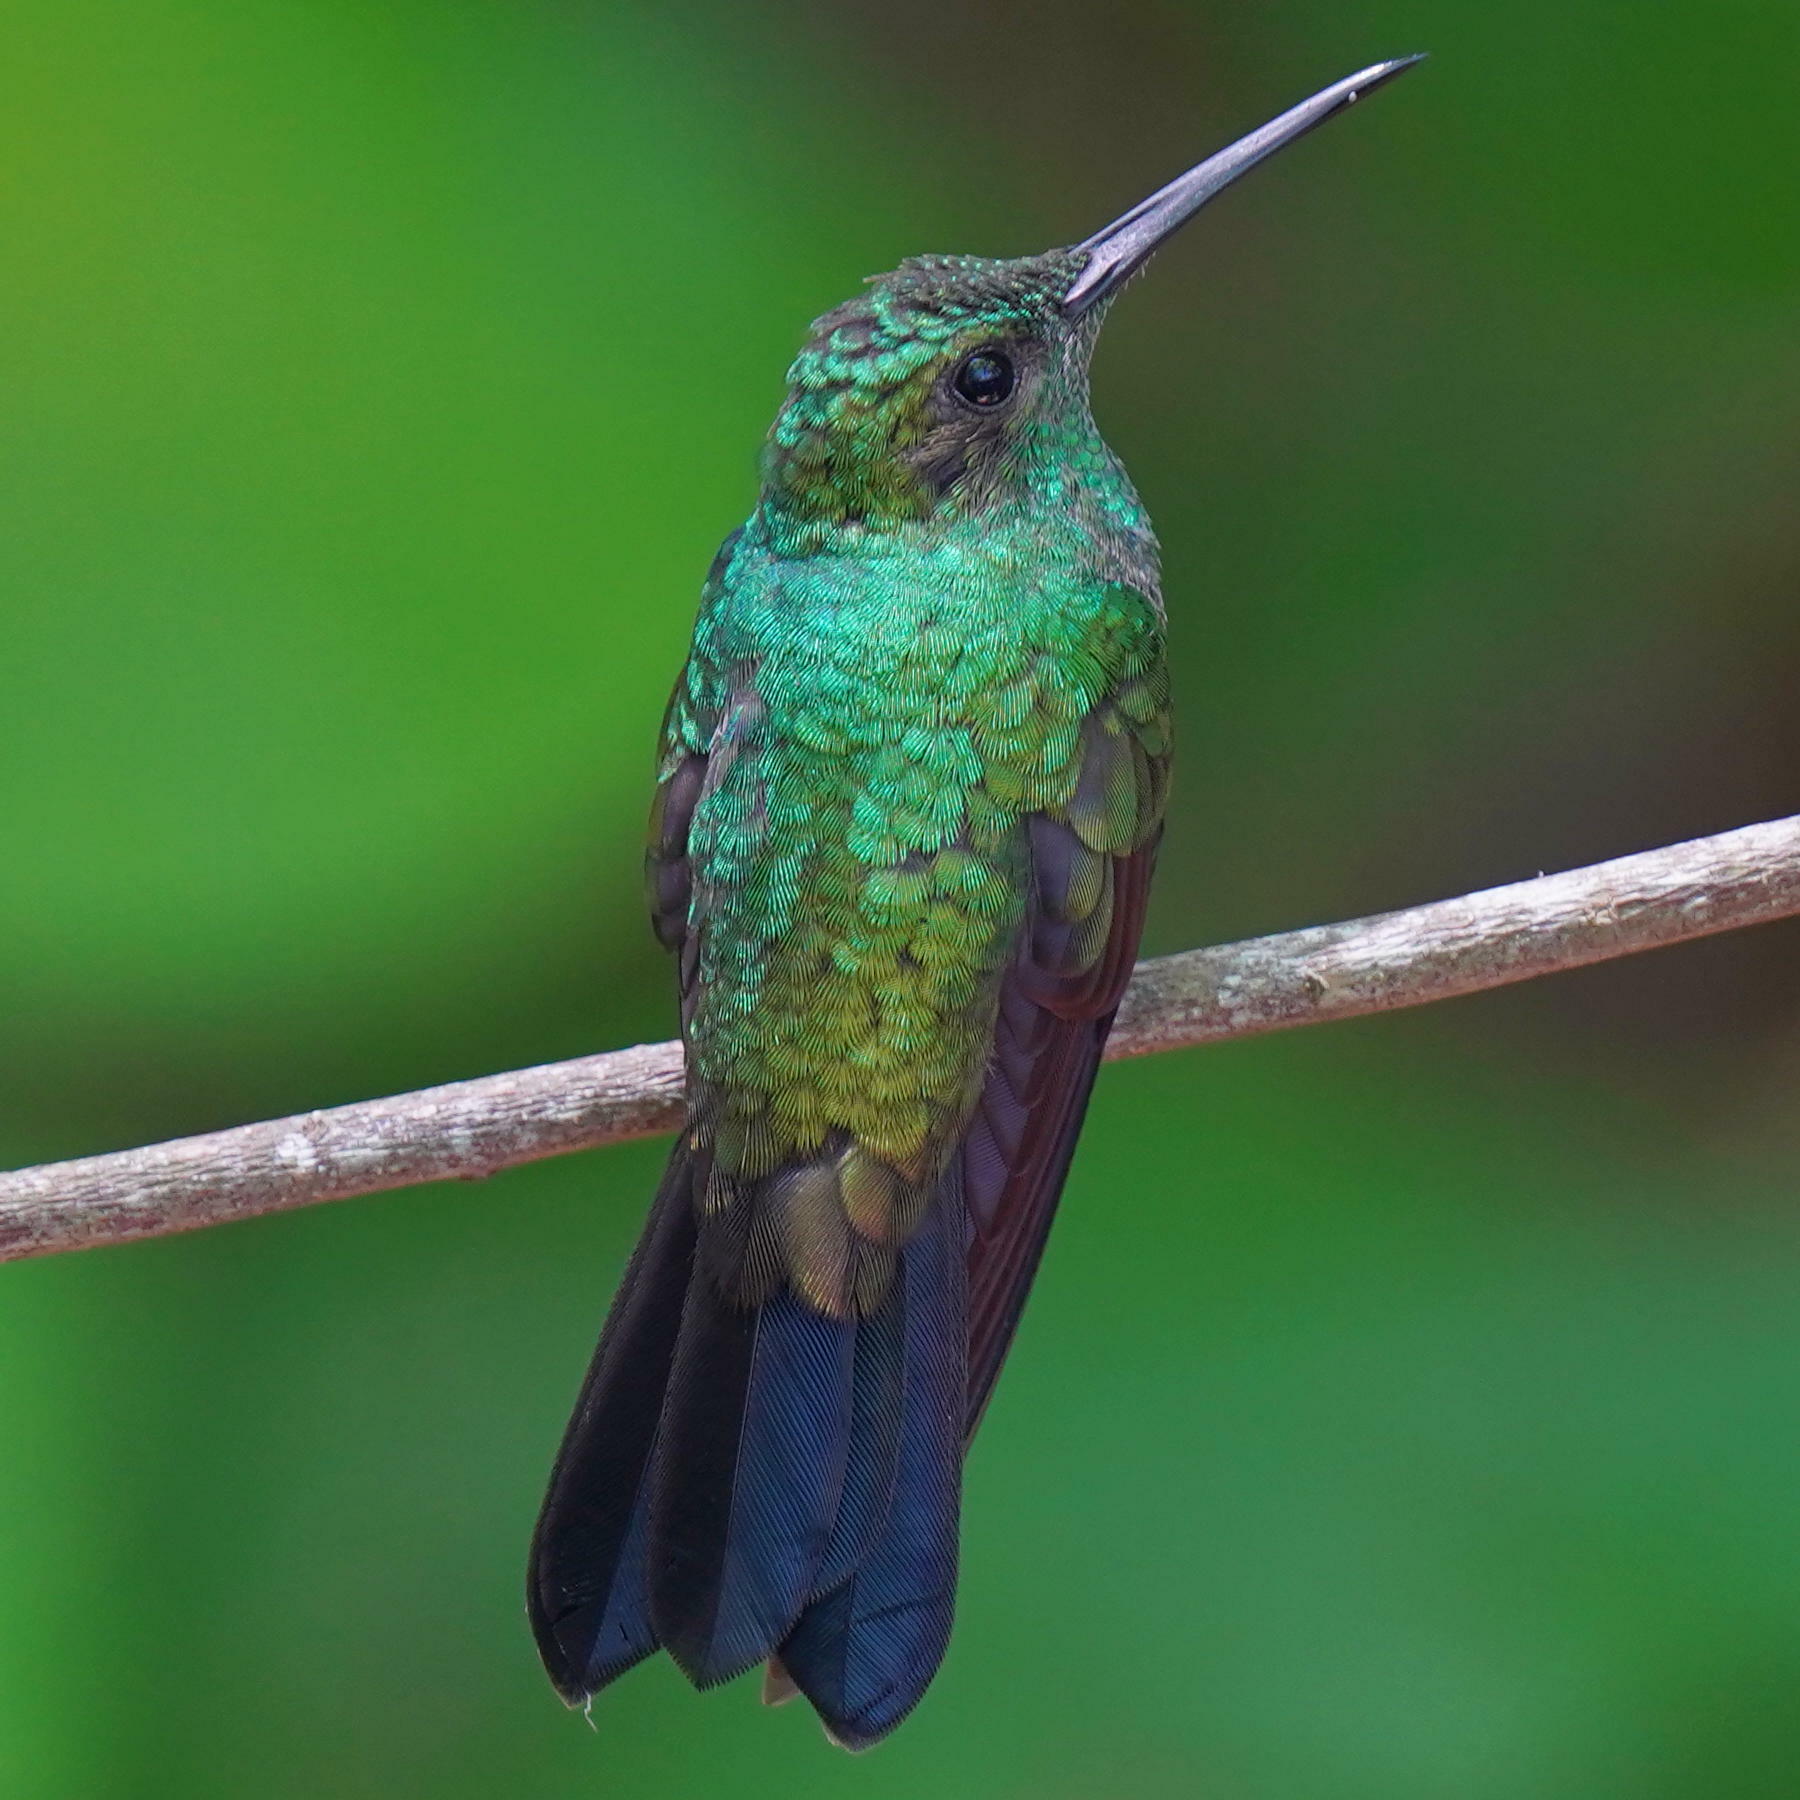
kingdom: Animalia
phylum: Chordata
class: Aves
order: Apodiformes
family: Trochilidae
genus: Chalybura
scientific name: Chalybura buffonii
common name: White-vented plumeleteer
